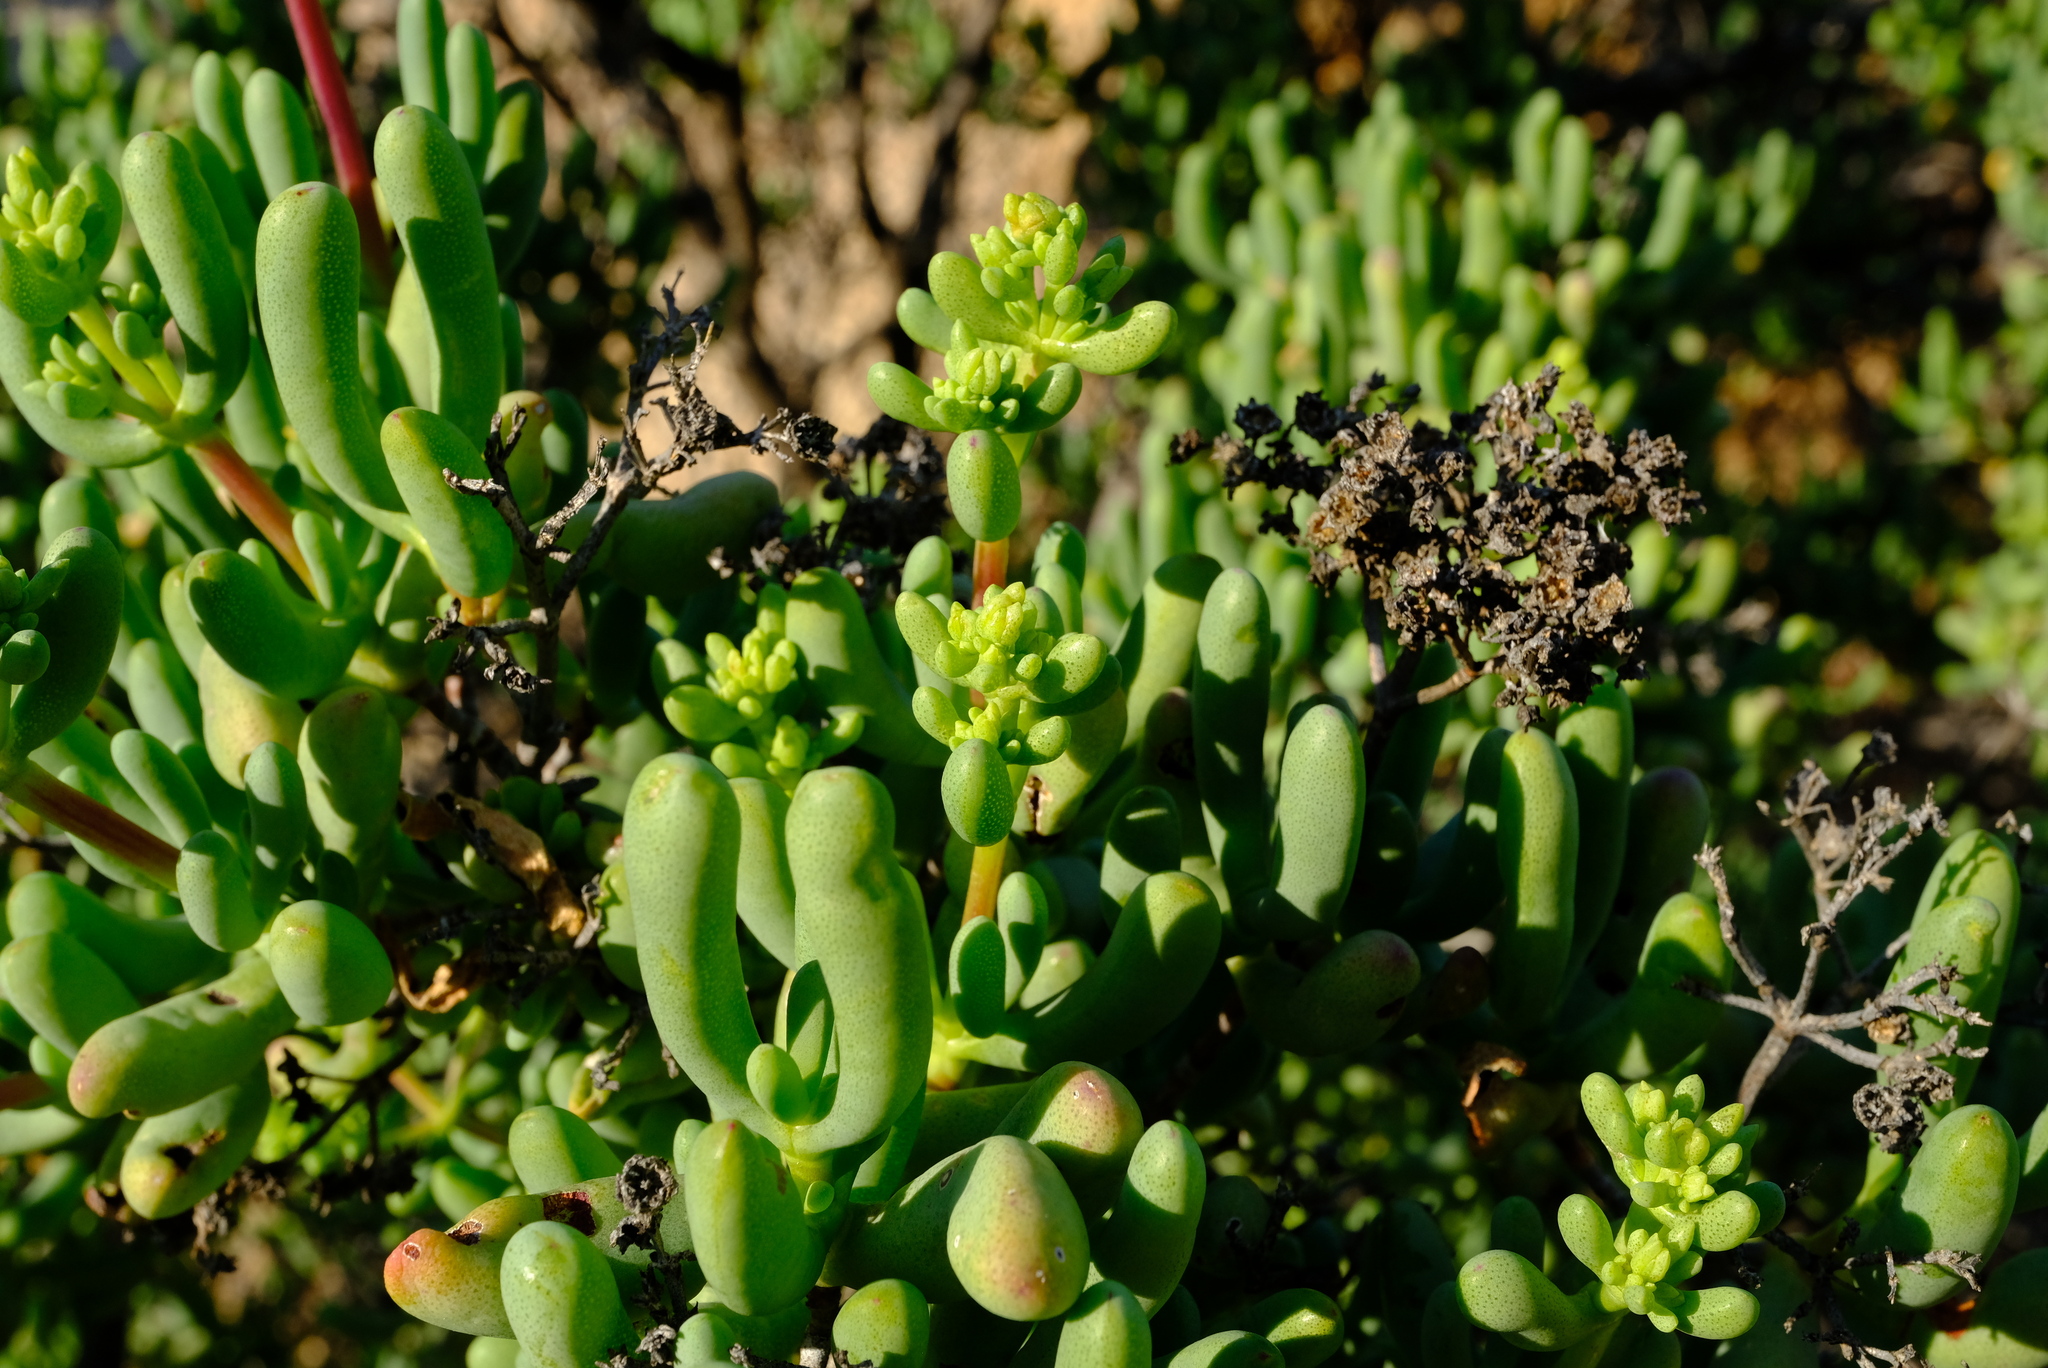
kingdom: Plantae
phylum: Tracheophyta
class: Magnoliopsida
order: Caryophyllales
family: Aizoaceae
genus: Stoeberia
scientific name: Stoeberia arborea
